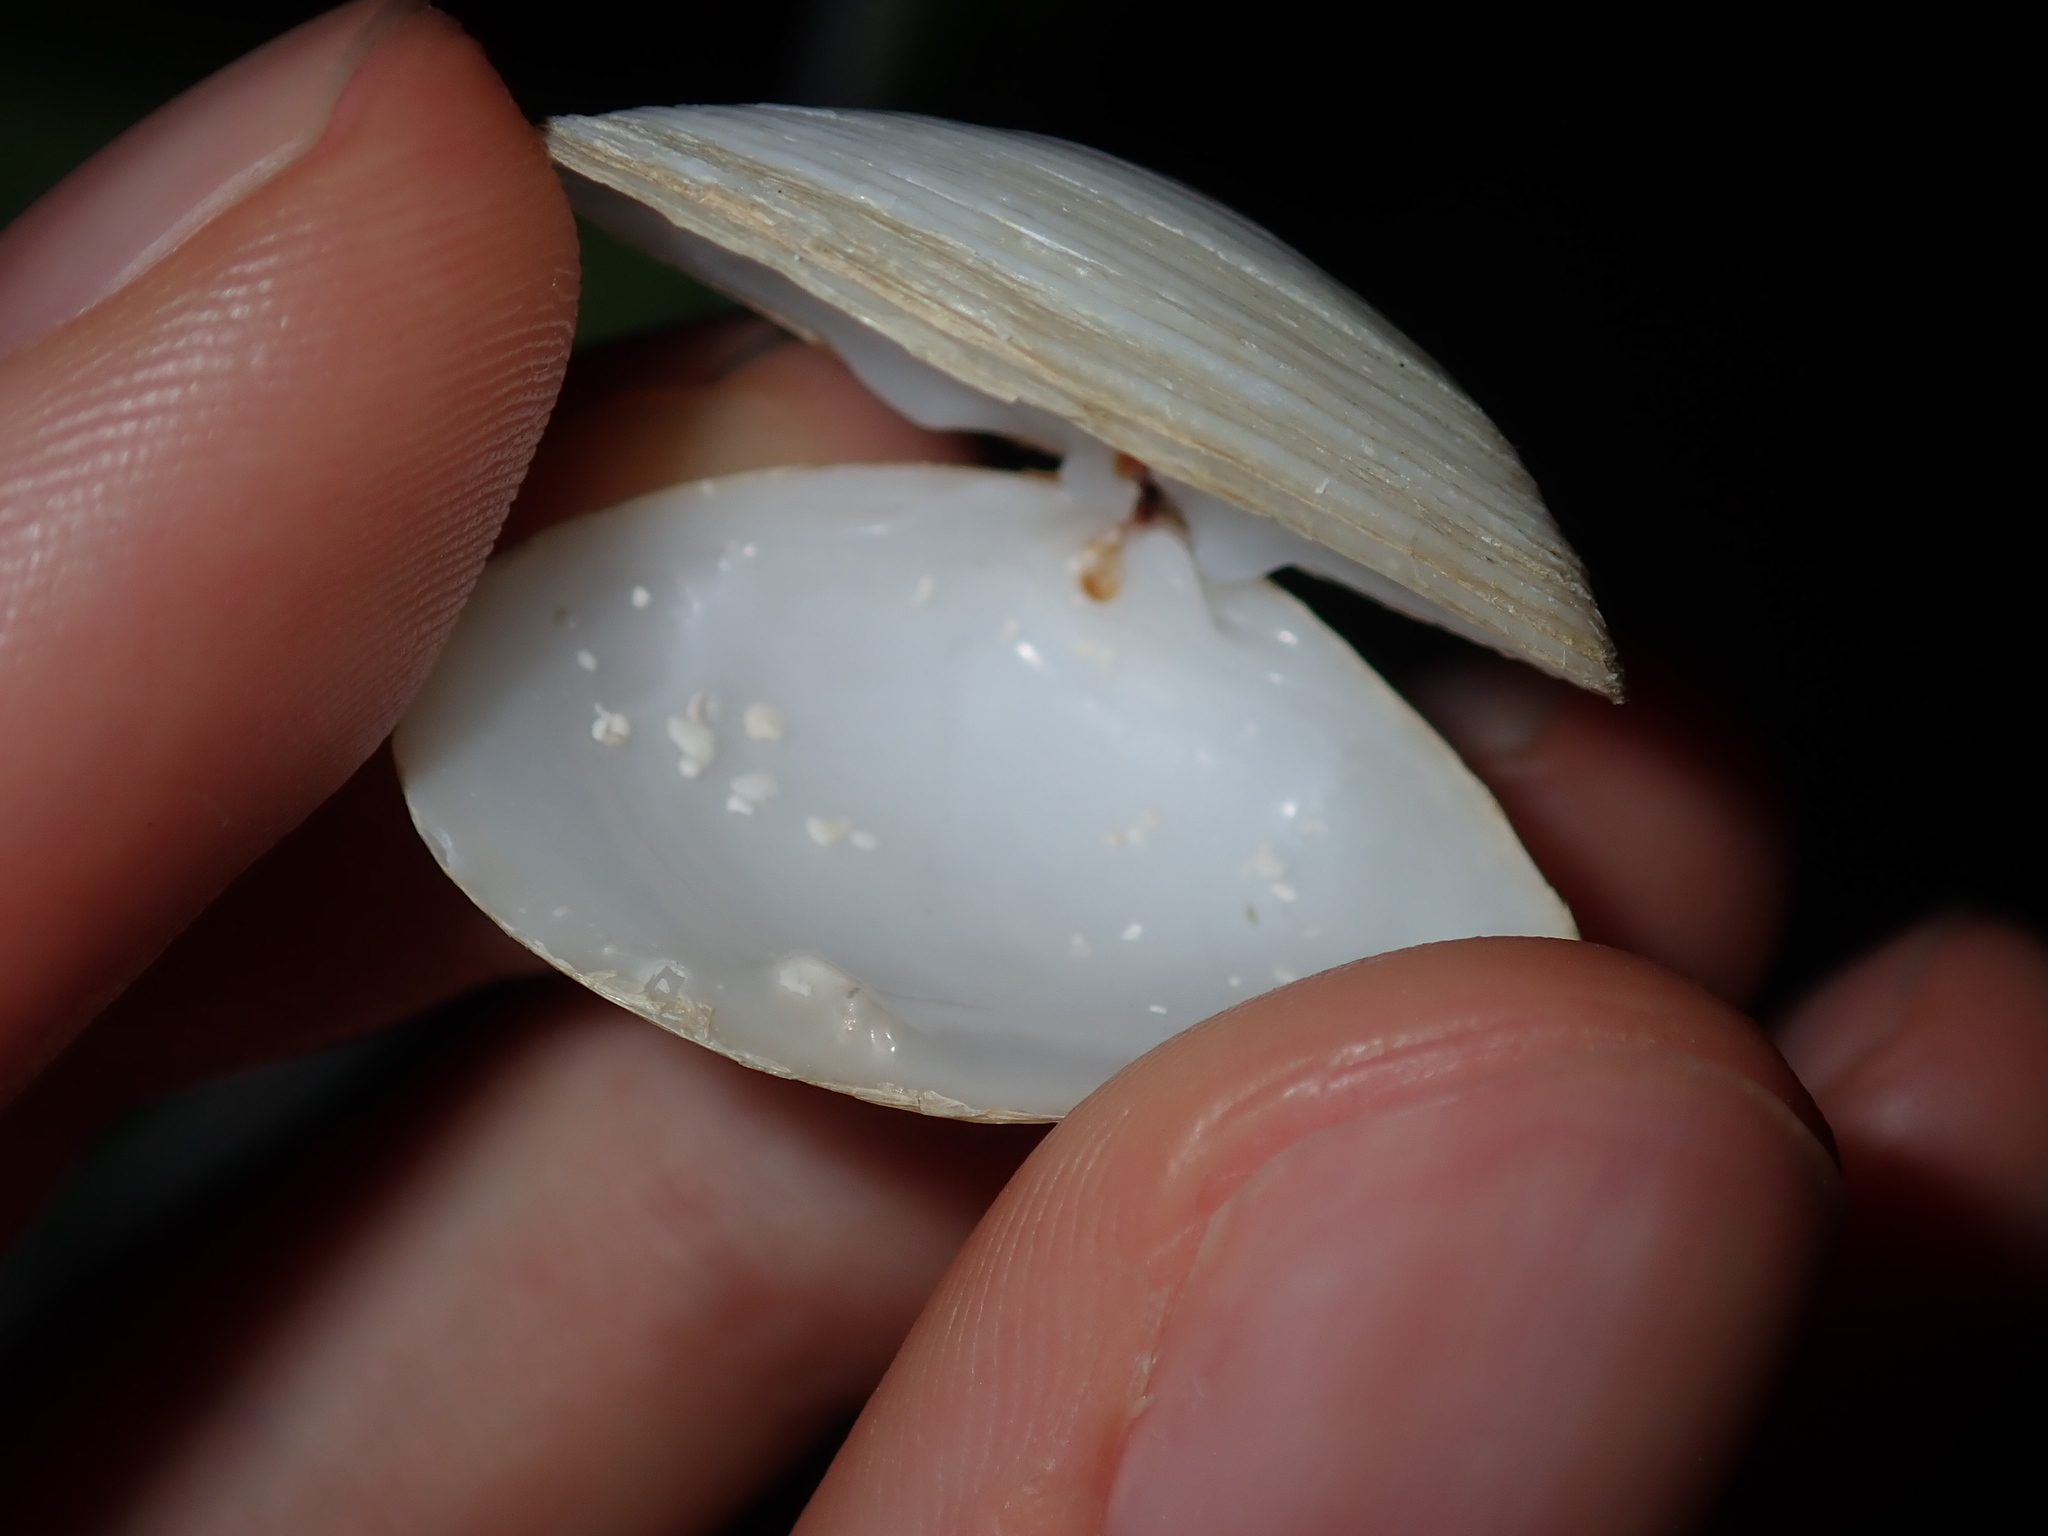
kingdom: Animalia
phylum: Mollusca
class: Bivalvia
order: Venerida
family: Mesodesmatidae
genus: Atactodea
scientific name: Atactodea striata
